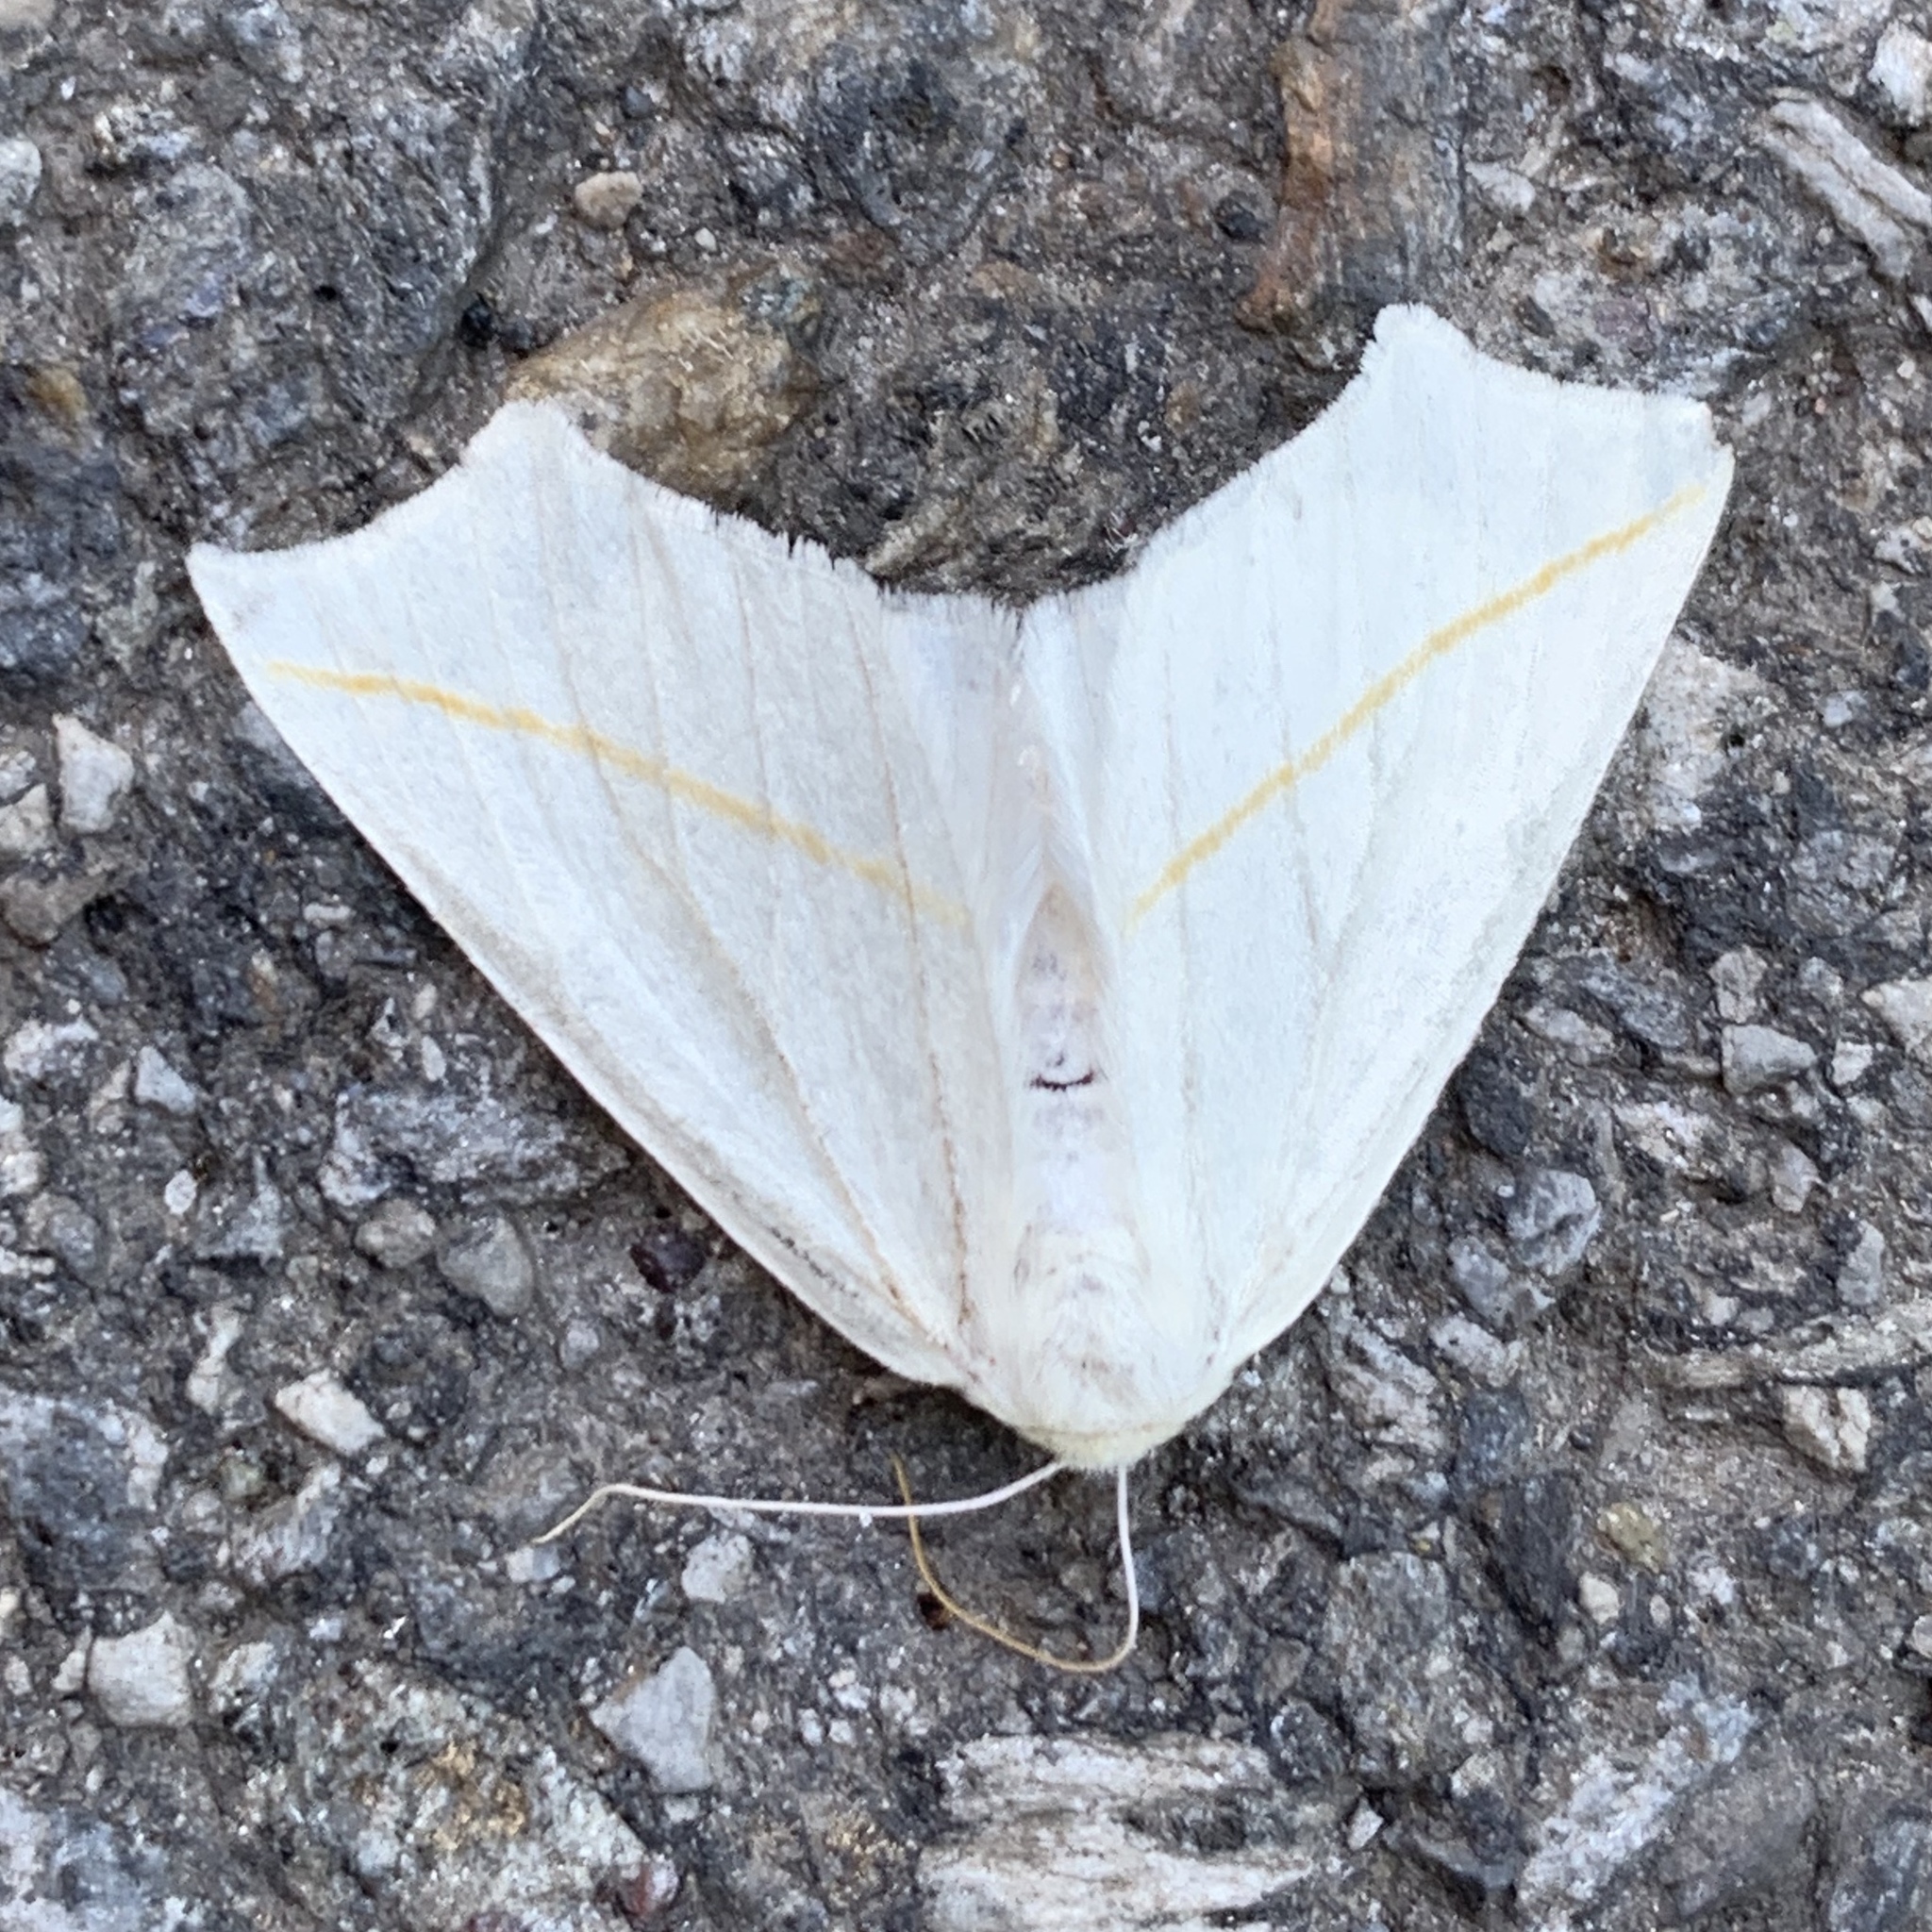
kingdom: Animalia
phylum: Arthropoda
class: Insecta
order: Lepidoptera
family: Geometridae
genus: Tetracis
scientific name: Tetracis cachexiata
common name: White slant-line
